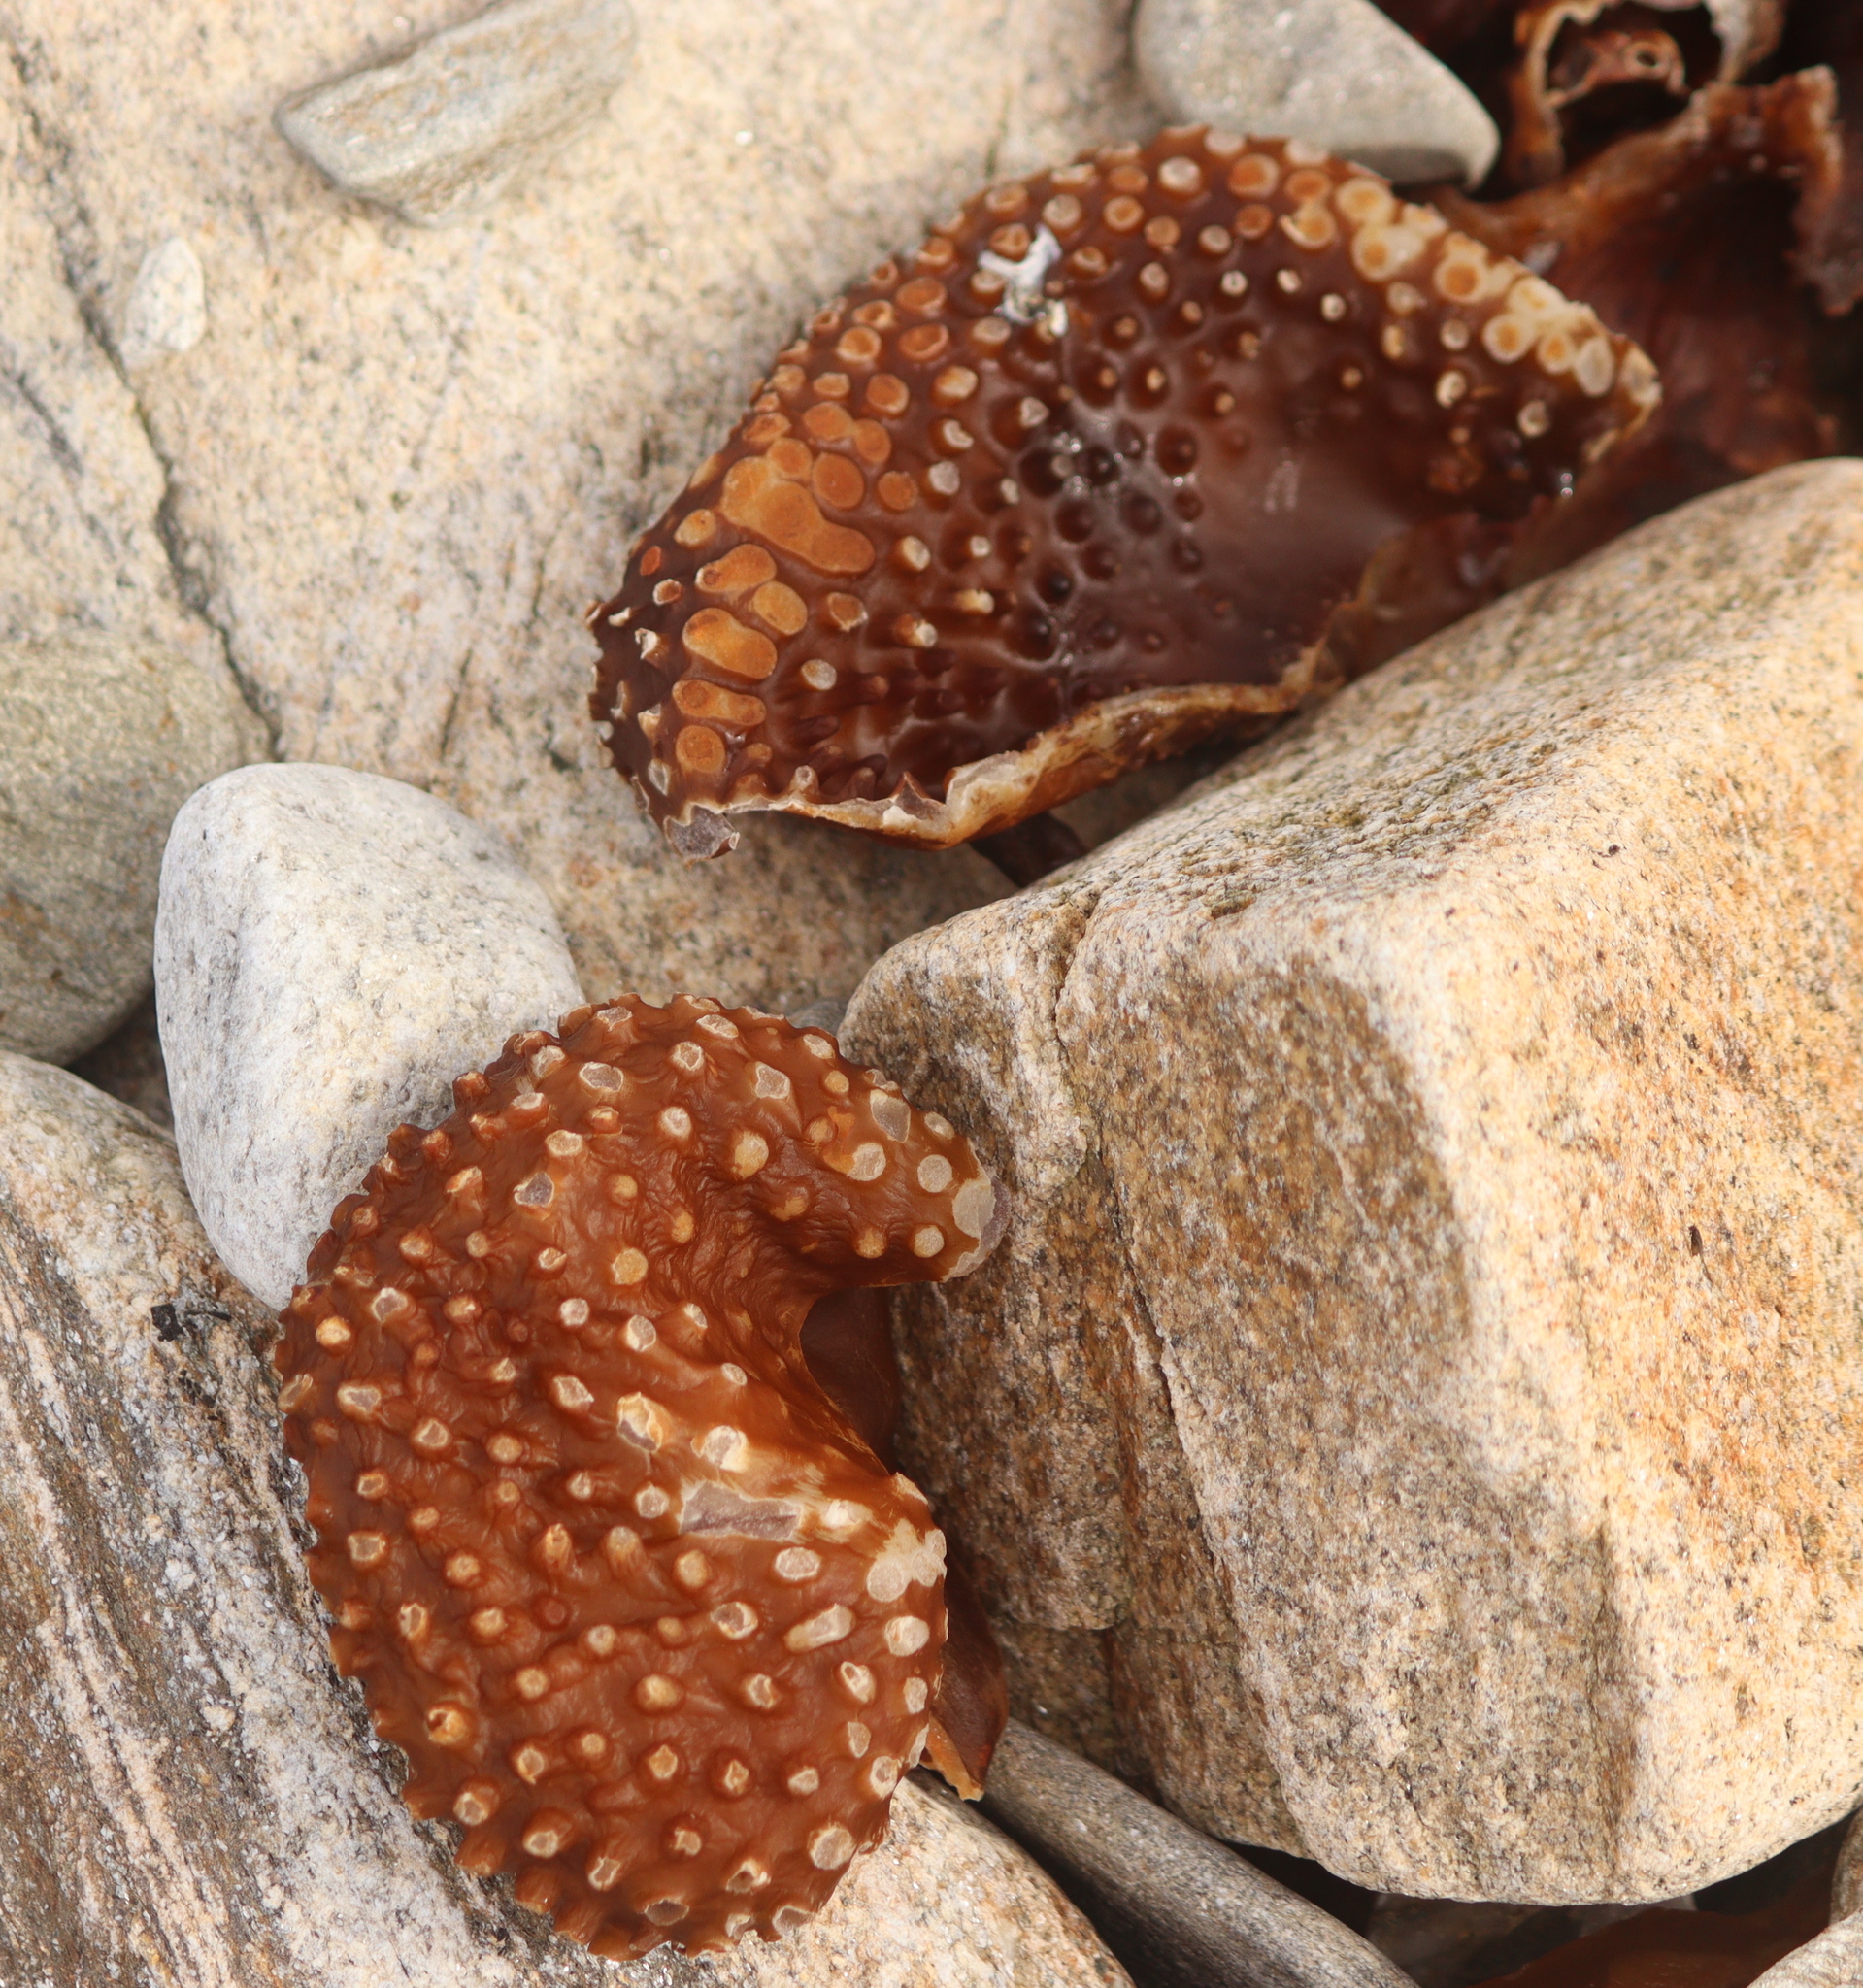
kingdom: Chromista
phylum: Ochrophyta
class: Phaeophyceae
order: Tilopteridales
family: Phyllariaceae
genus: Saccorhiza
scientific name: Saccorhiza polyschides
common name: Furbelows
